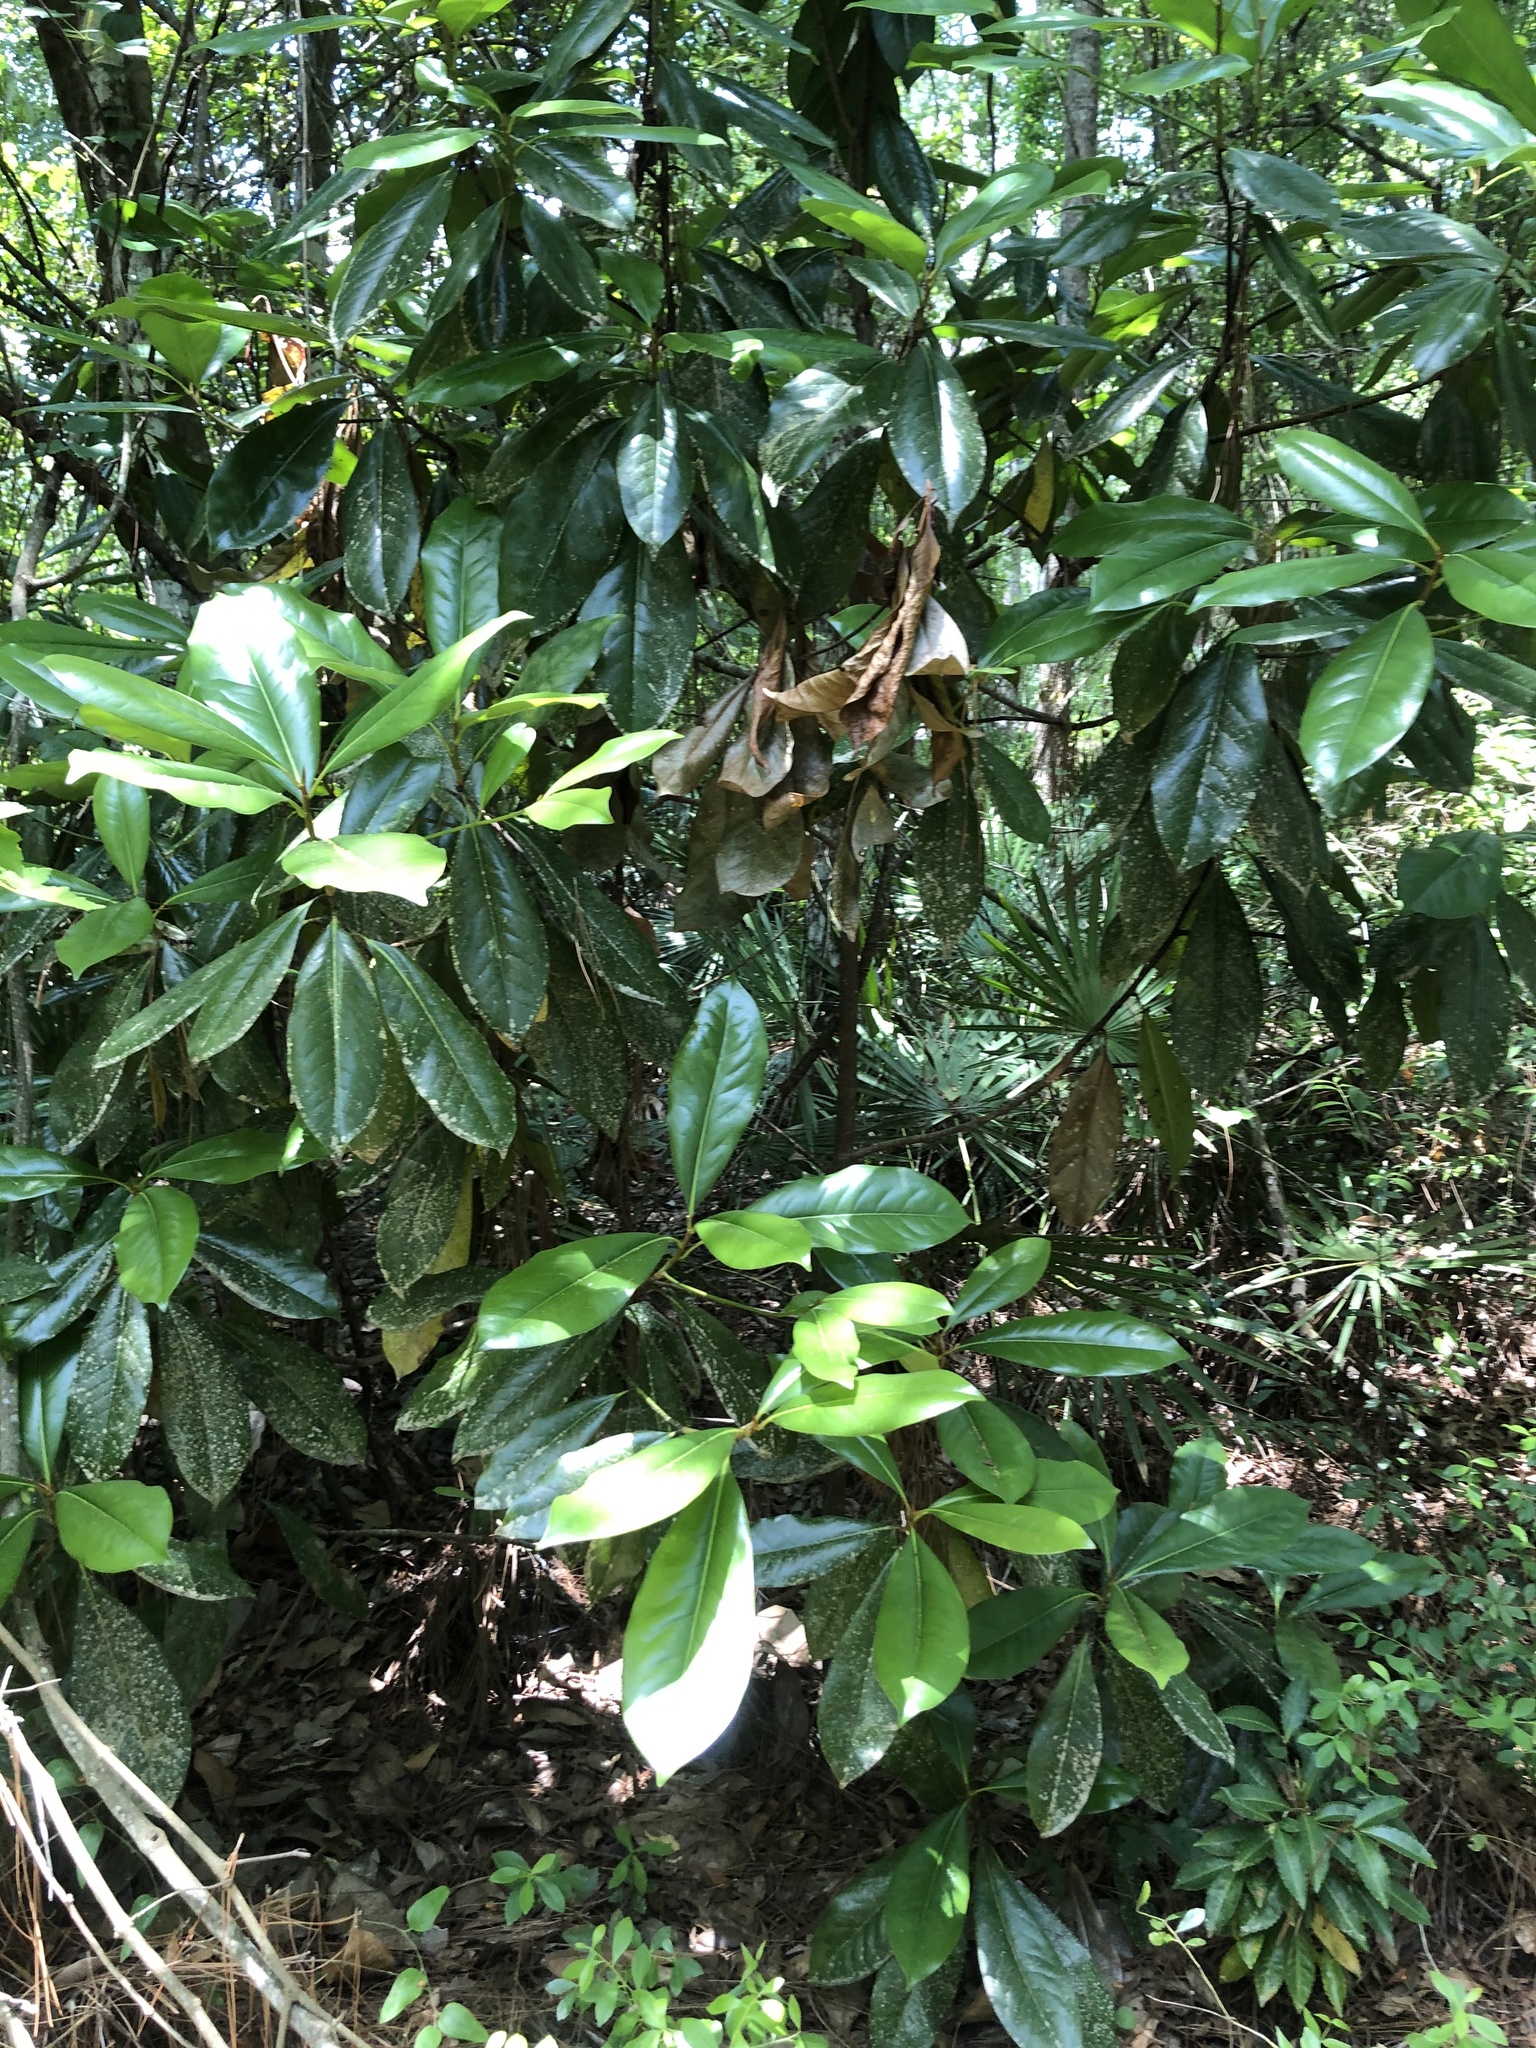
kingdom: Plantae
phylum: Tracheophyta
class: Magnoliopsida
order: Magnoliales
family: Magnoliaceae
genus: Magnolia
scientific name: Magnolia grandiflora
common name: Southern magnolia
